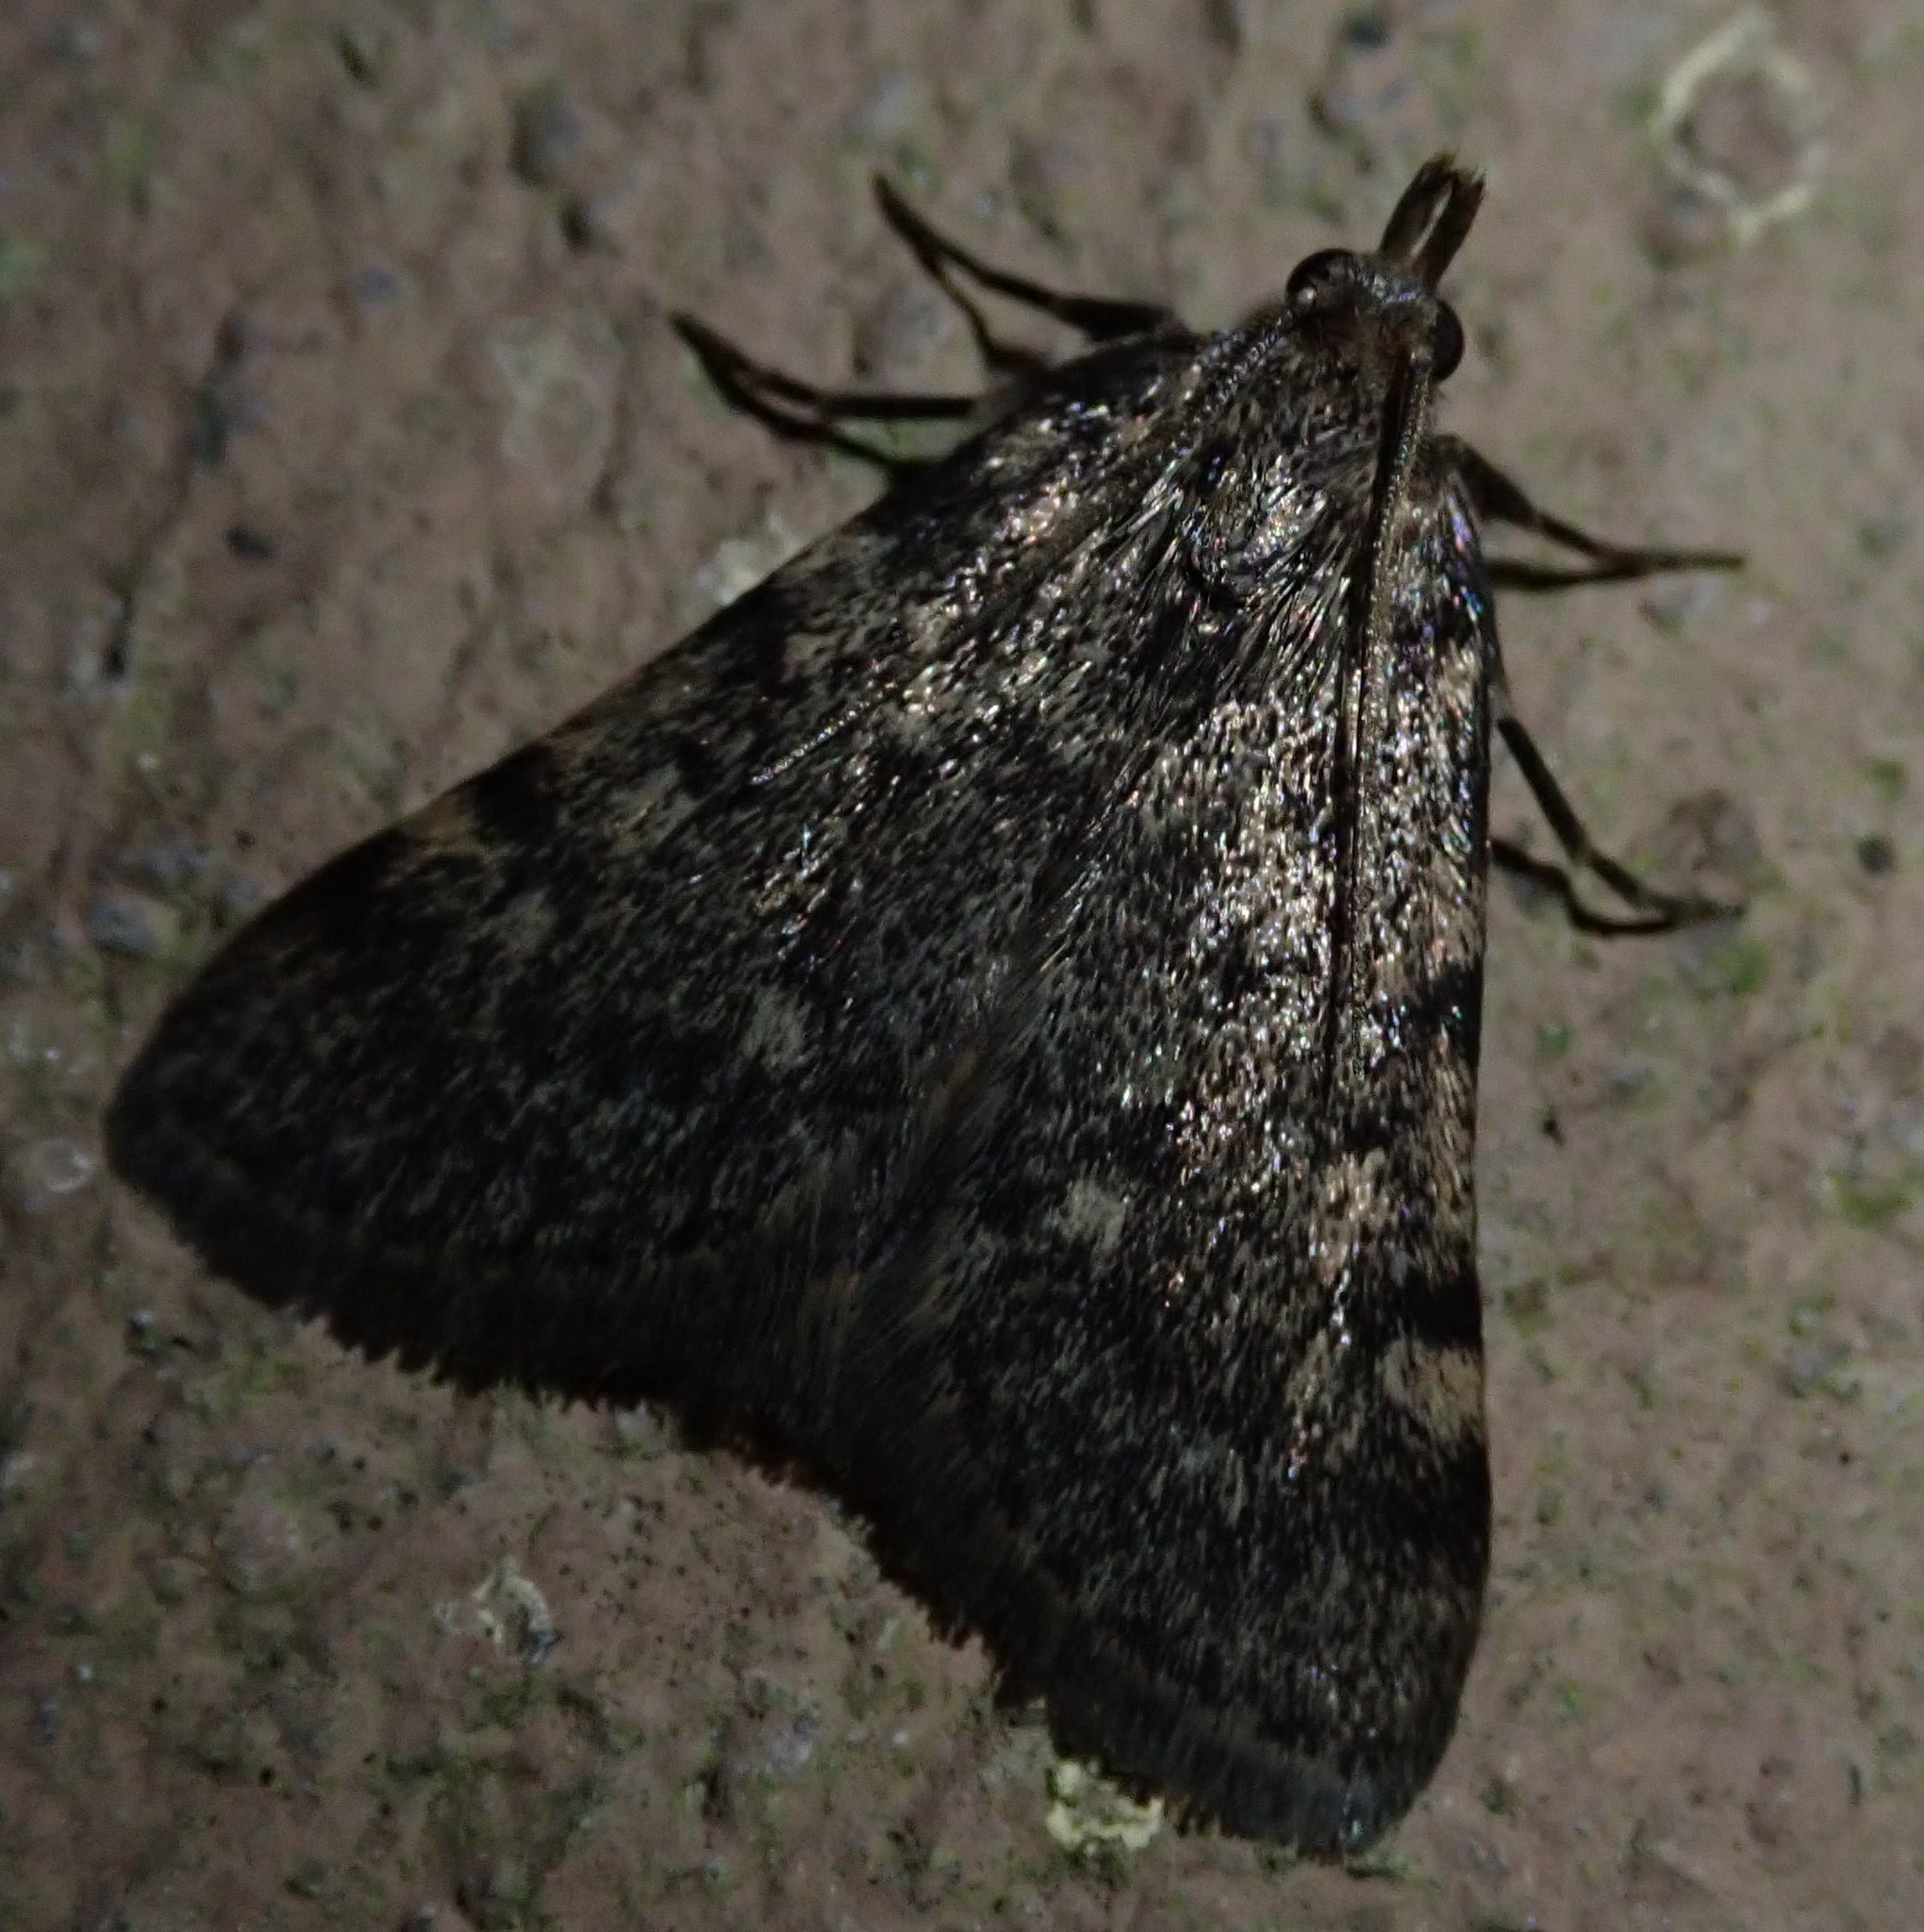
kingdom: Animalia
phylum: Arthropoda
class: Insecta
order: Lepidoptera
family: Pyralidae
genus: Aglossa
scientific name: Aglossa pinguinalis
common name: Large tabby
